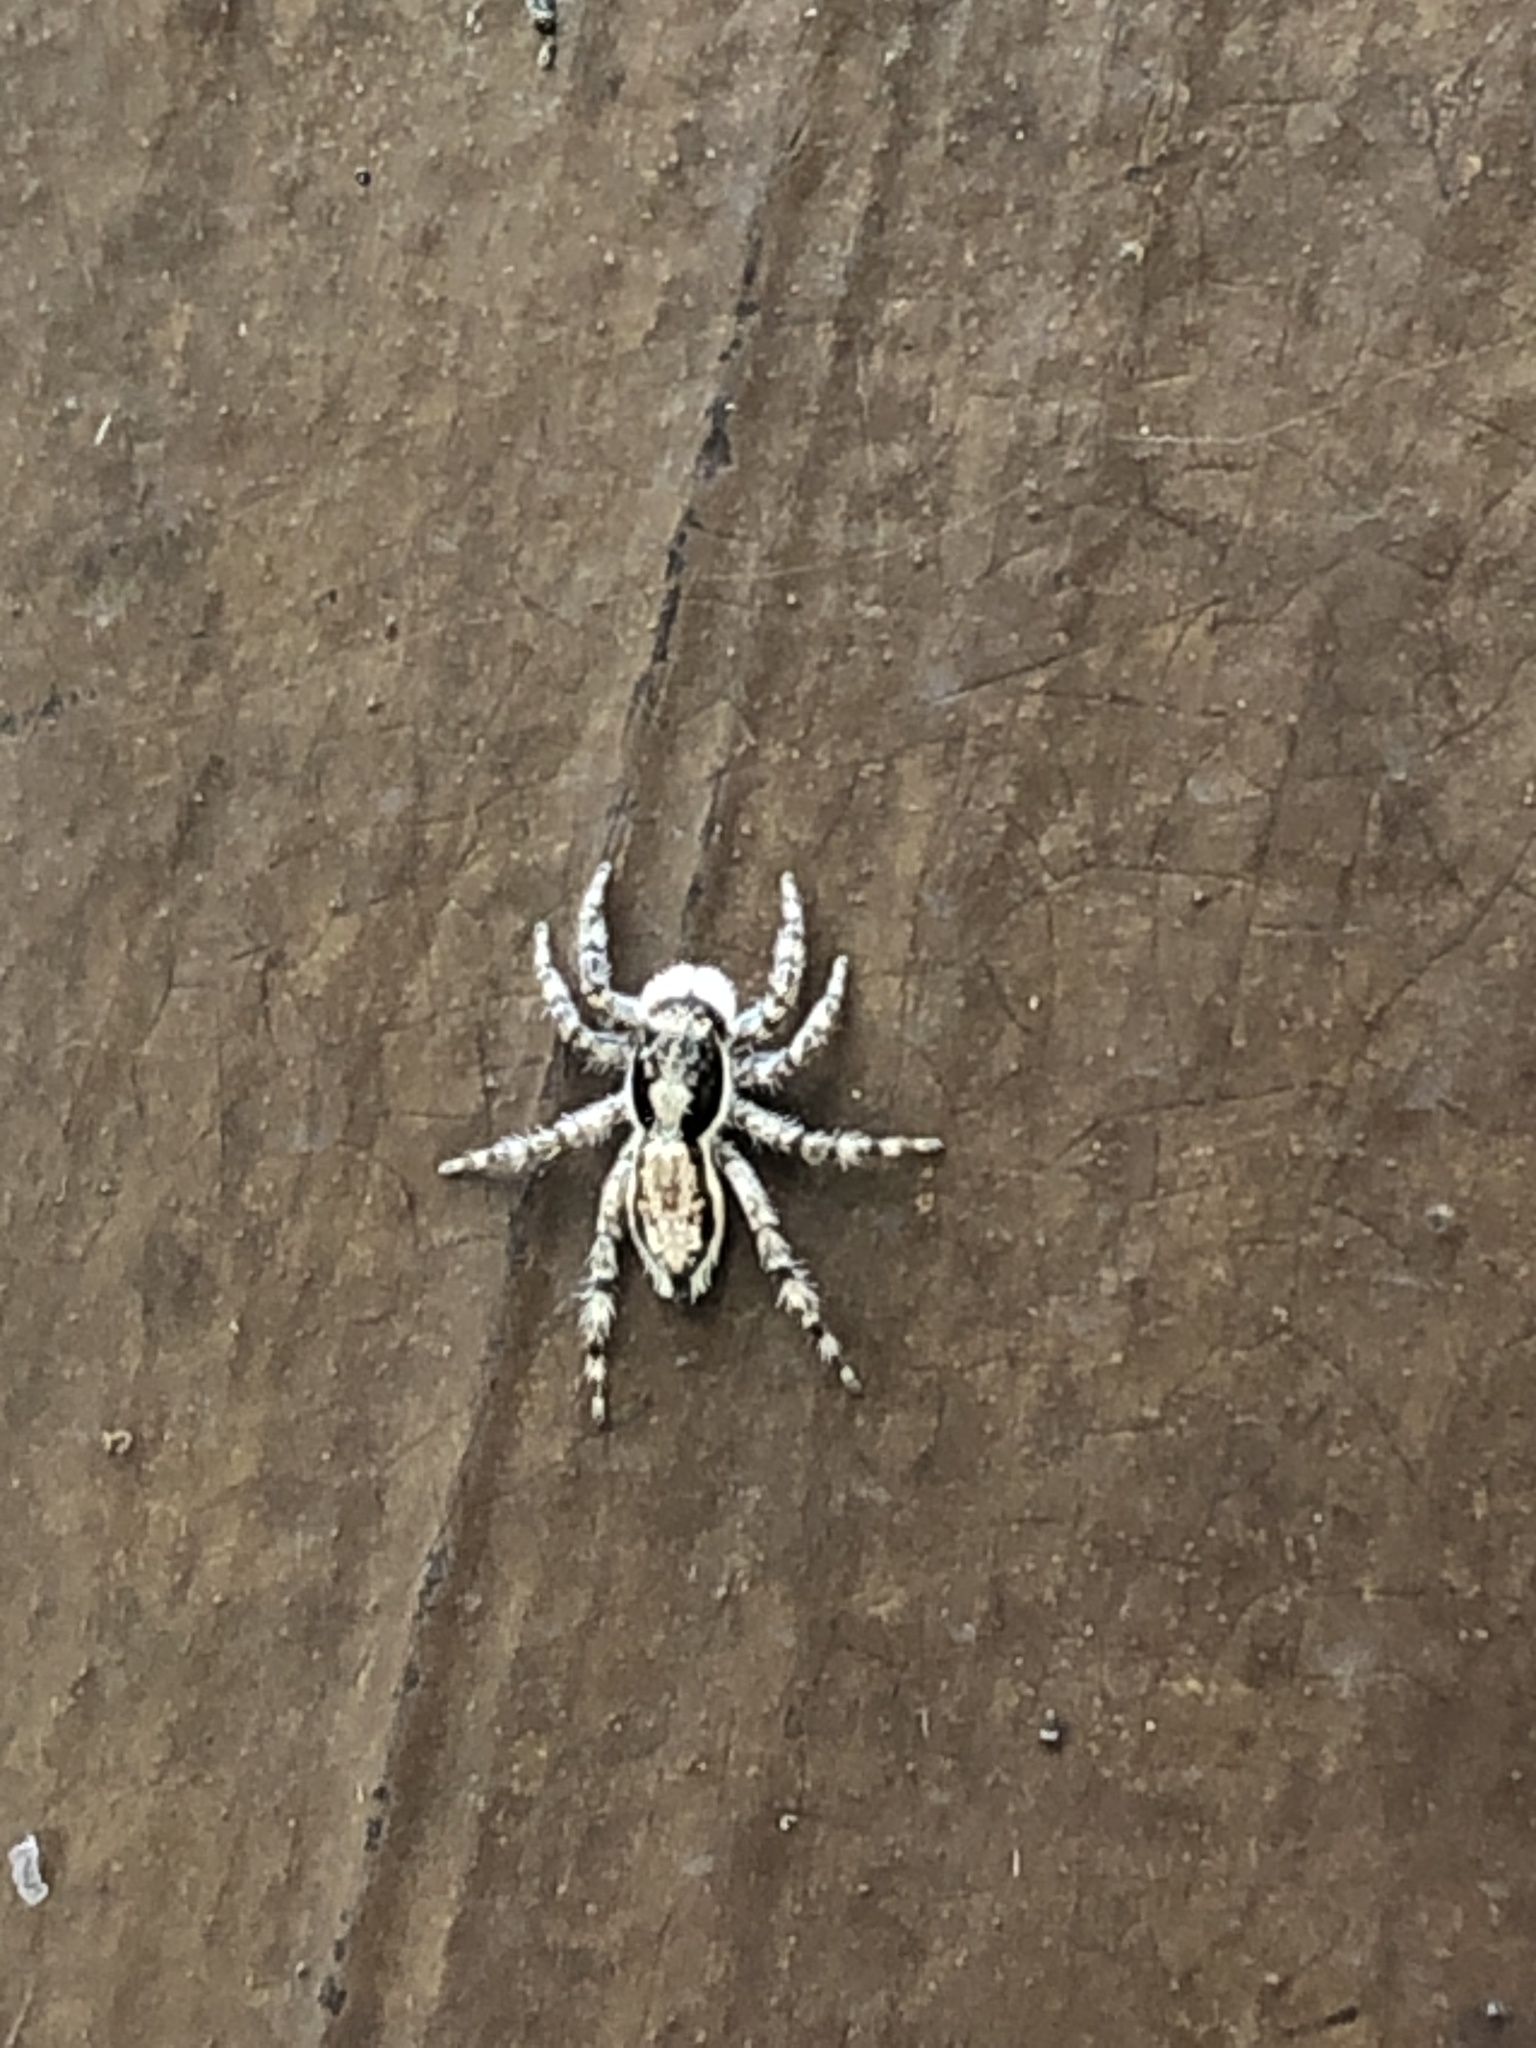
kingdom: Animalia
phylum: Arthropoda
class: Arachnida
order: Araneae
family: Salticidae
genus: Menemerus
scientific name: Menemerus bivittatus
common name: Gray wall jumper
